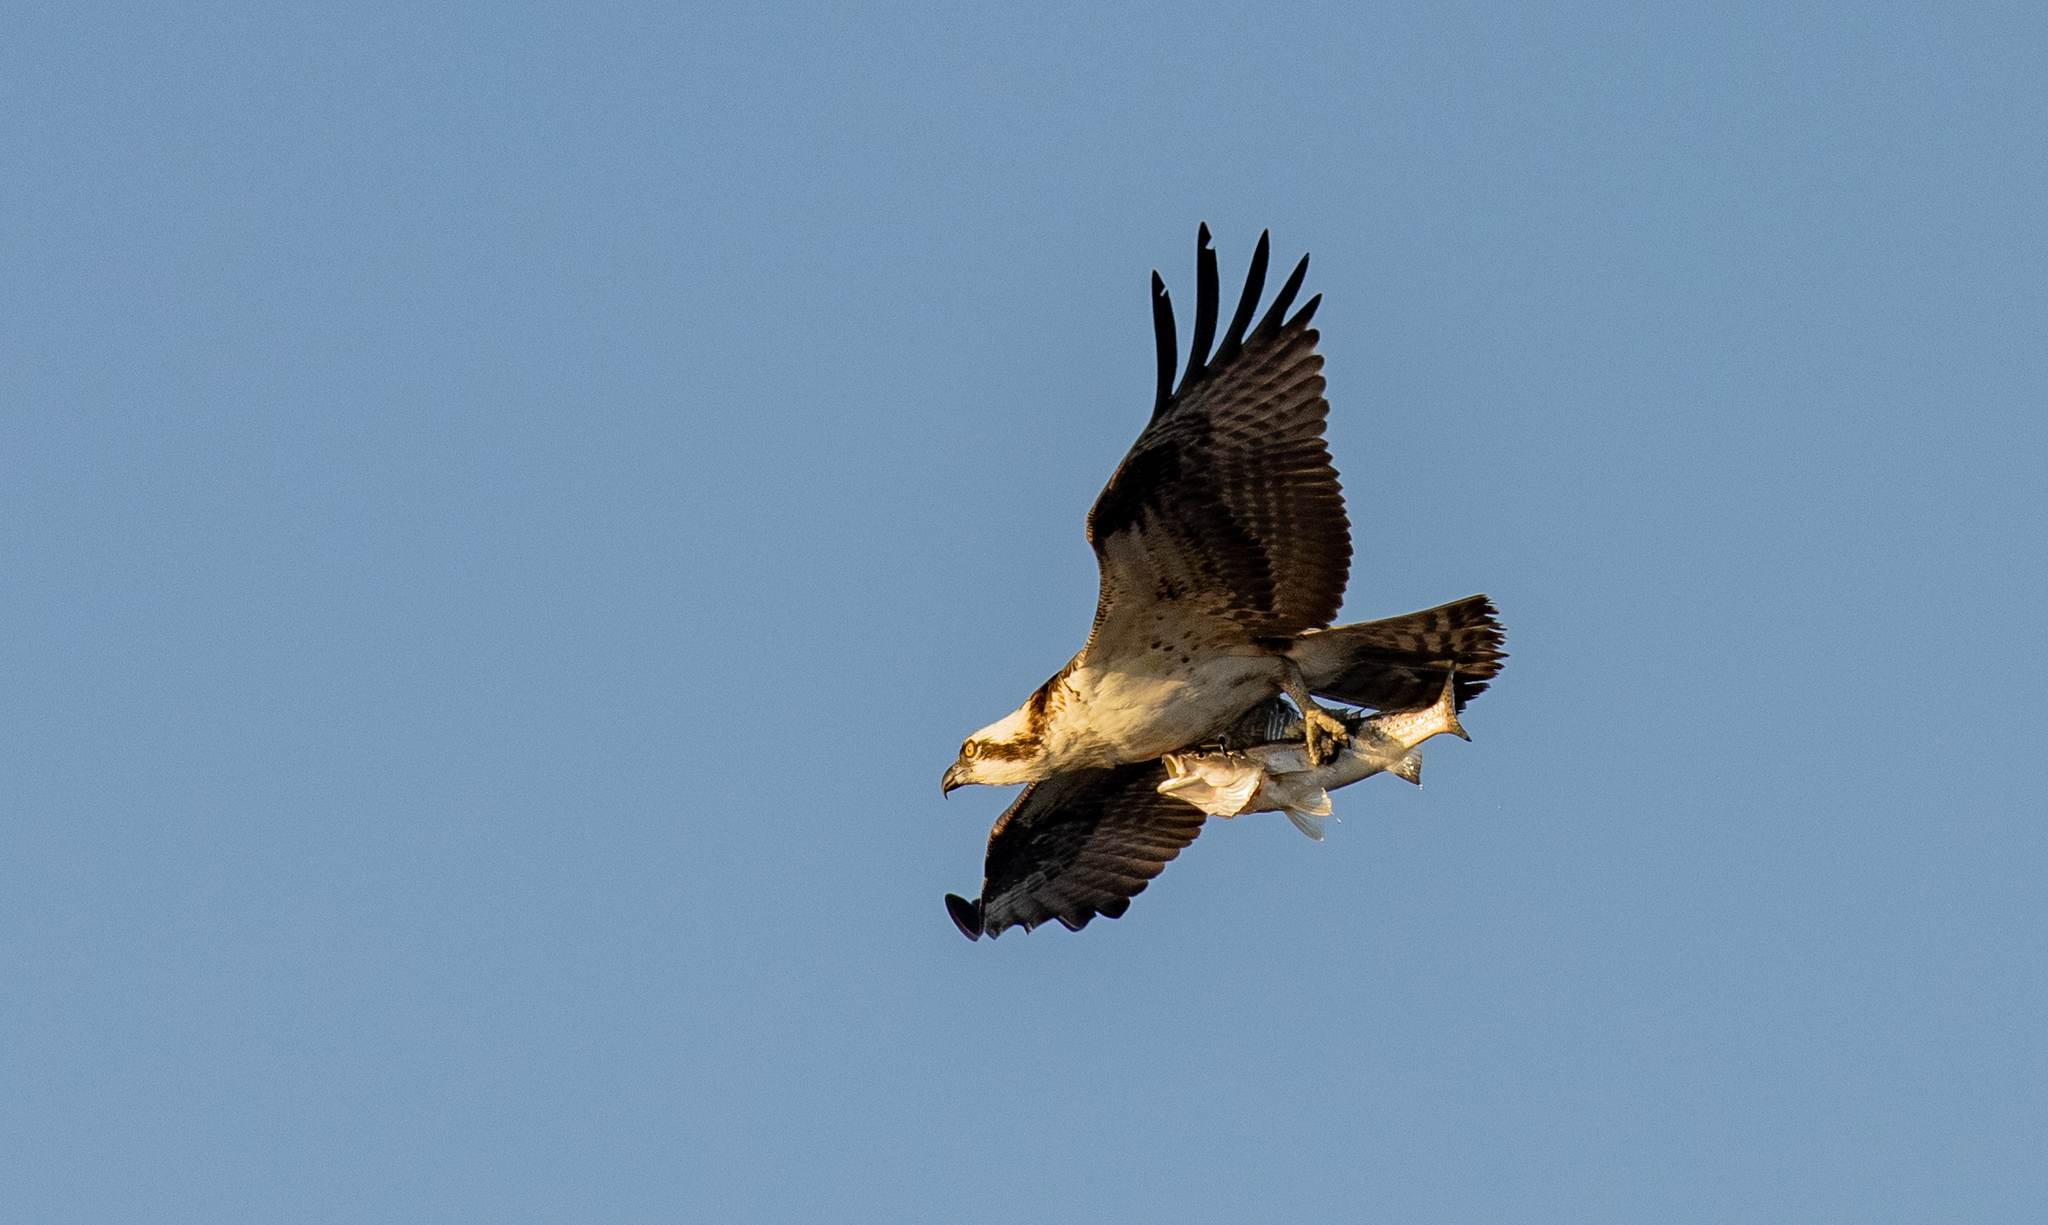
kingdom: Animalia
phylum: Chordata
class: Aves
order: Accipitriformes
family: Pandionidae
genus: Pandion
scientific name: Pandion haliaetus
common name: Osprey
